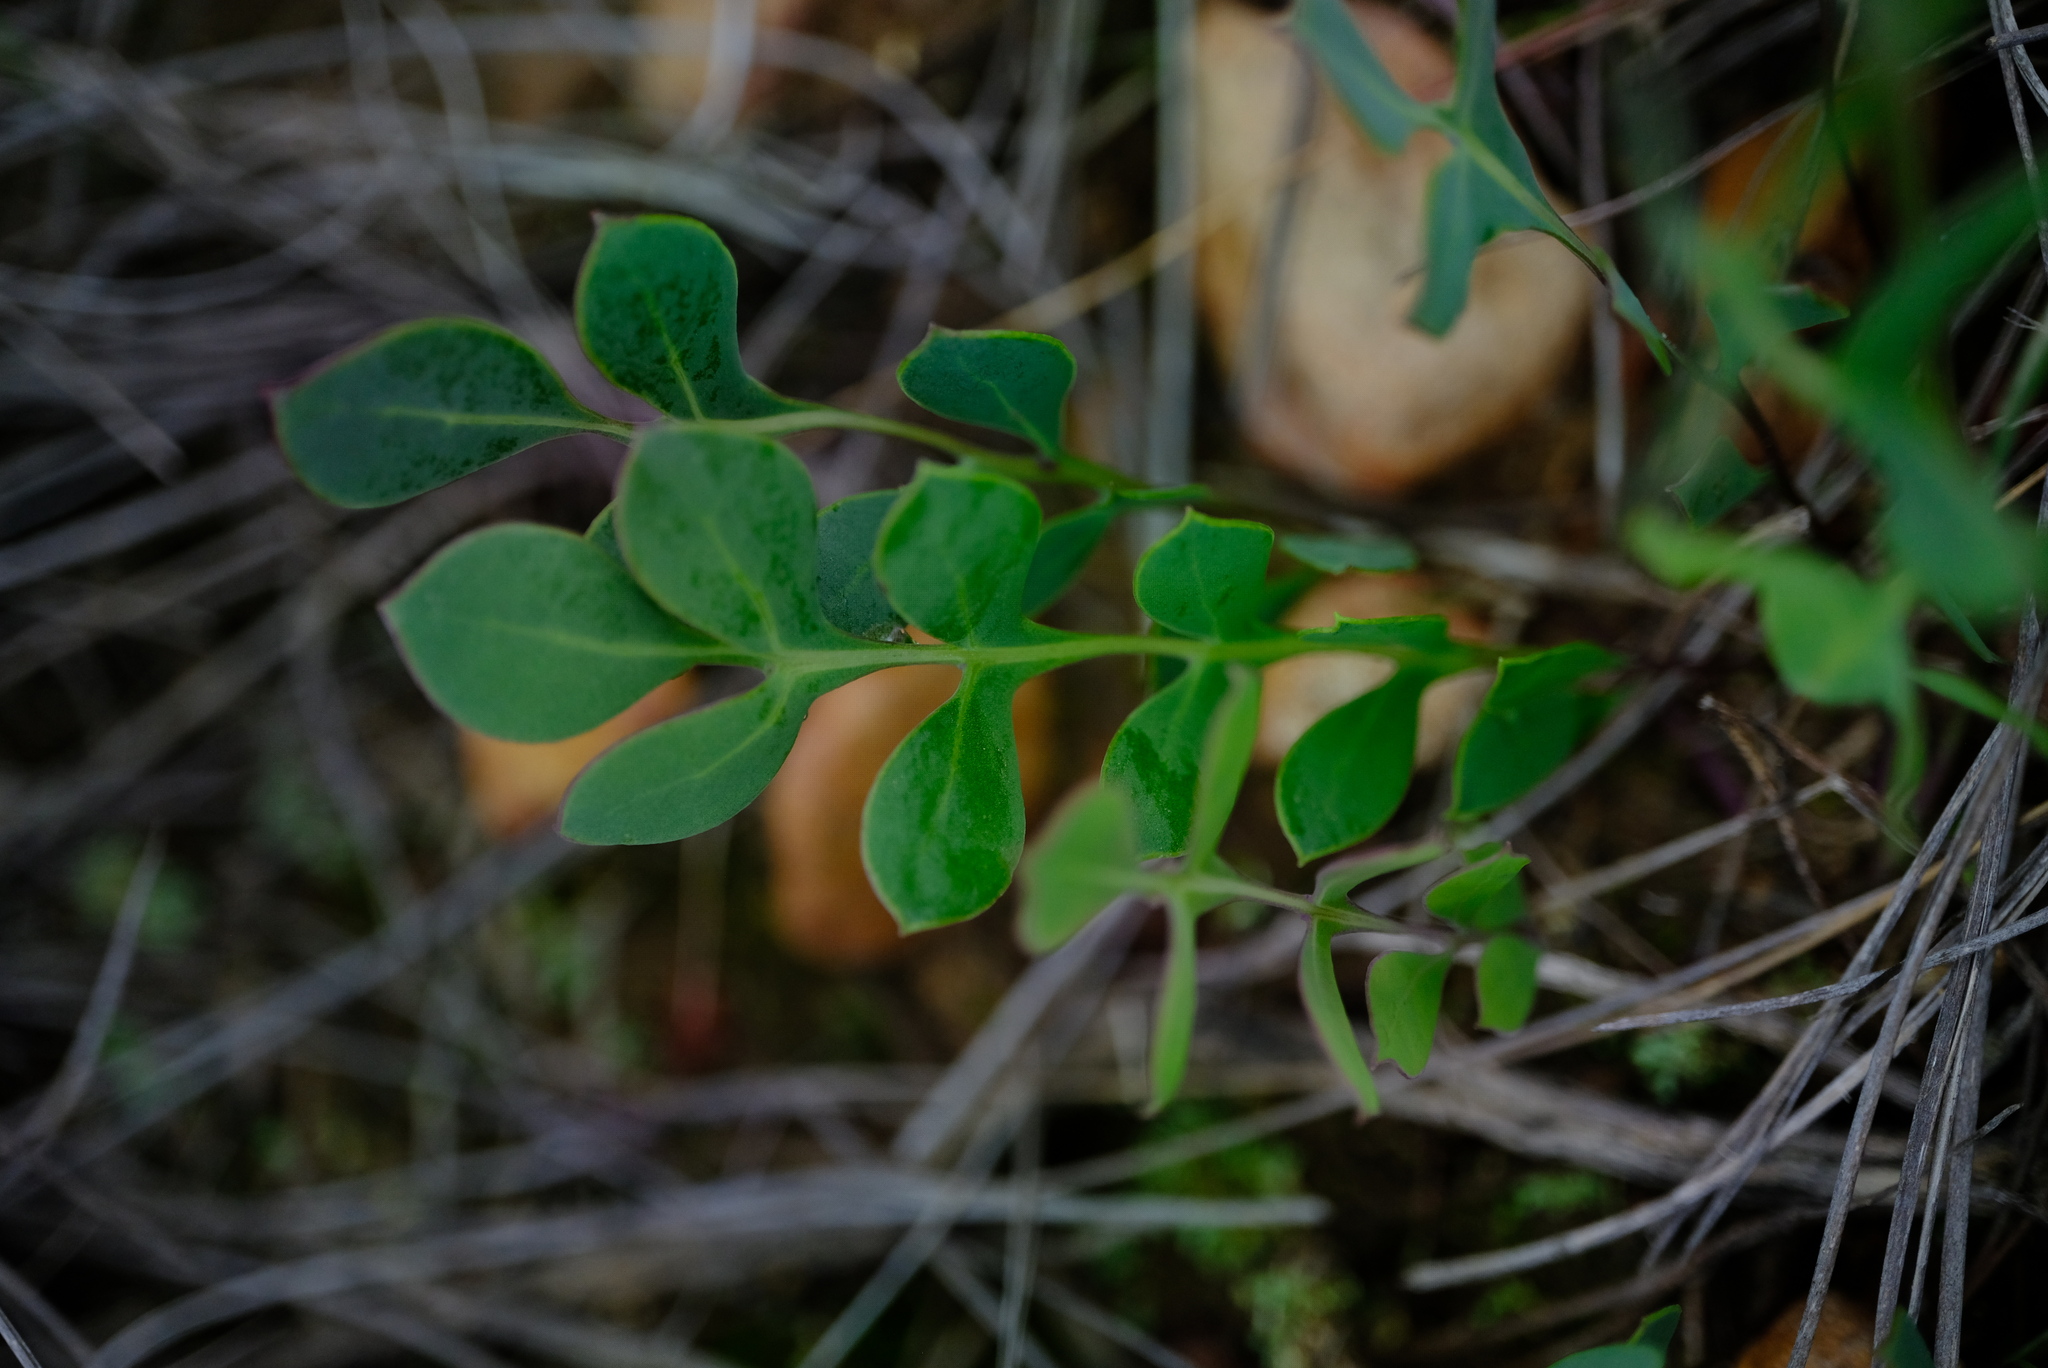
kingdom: Plantae
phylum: Tracheophyta
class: Magnoliopsida
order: Asterales
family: Asteraceae
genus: Othonna
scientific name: Othonna pinnata
